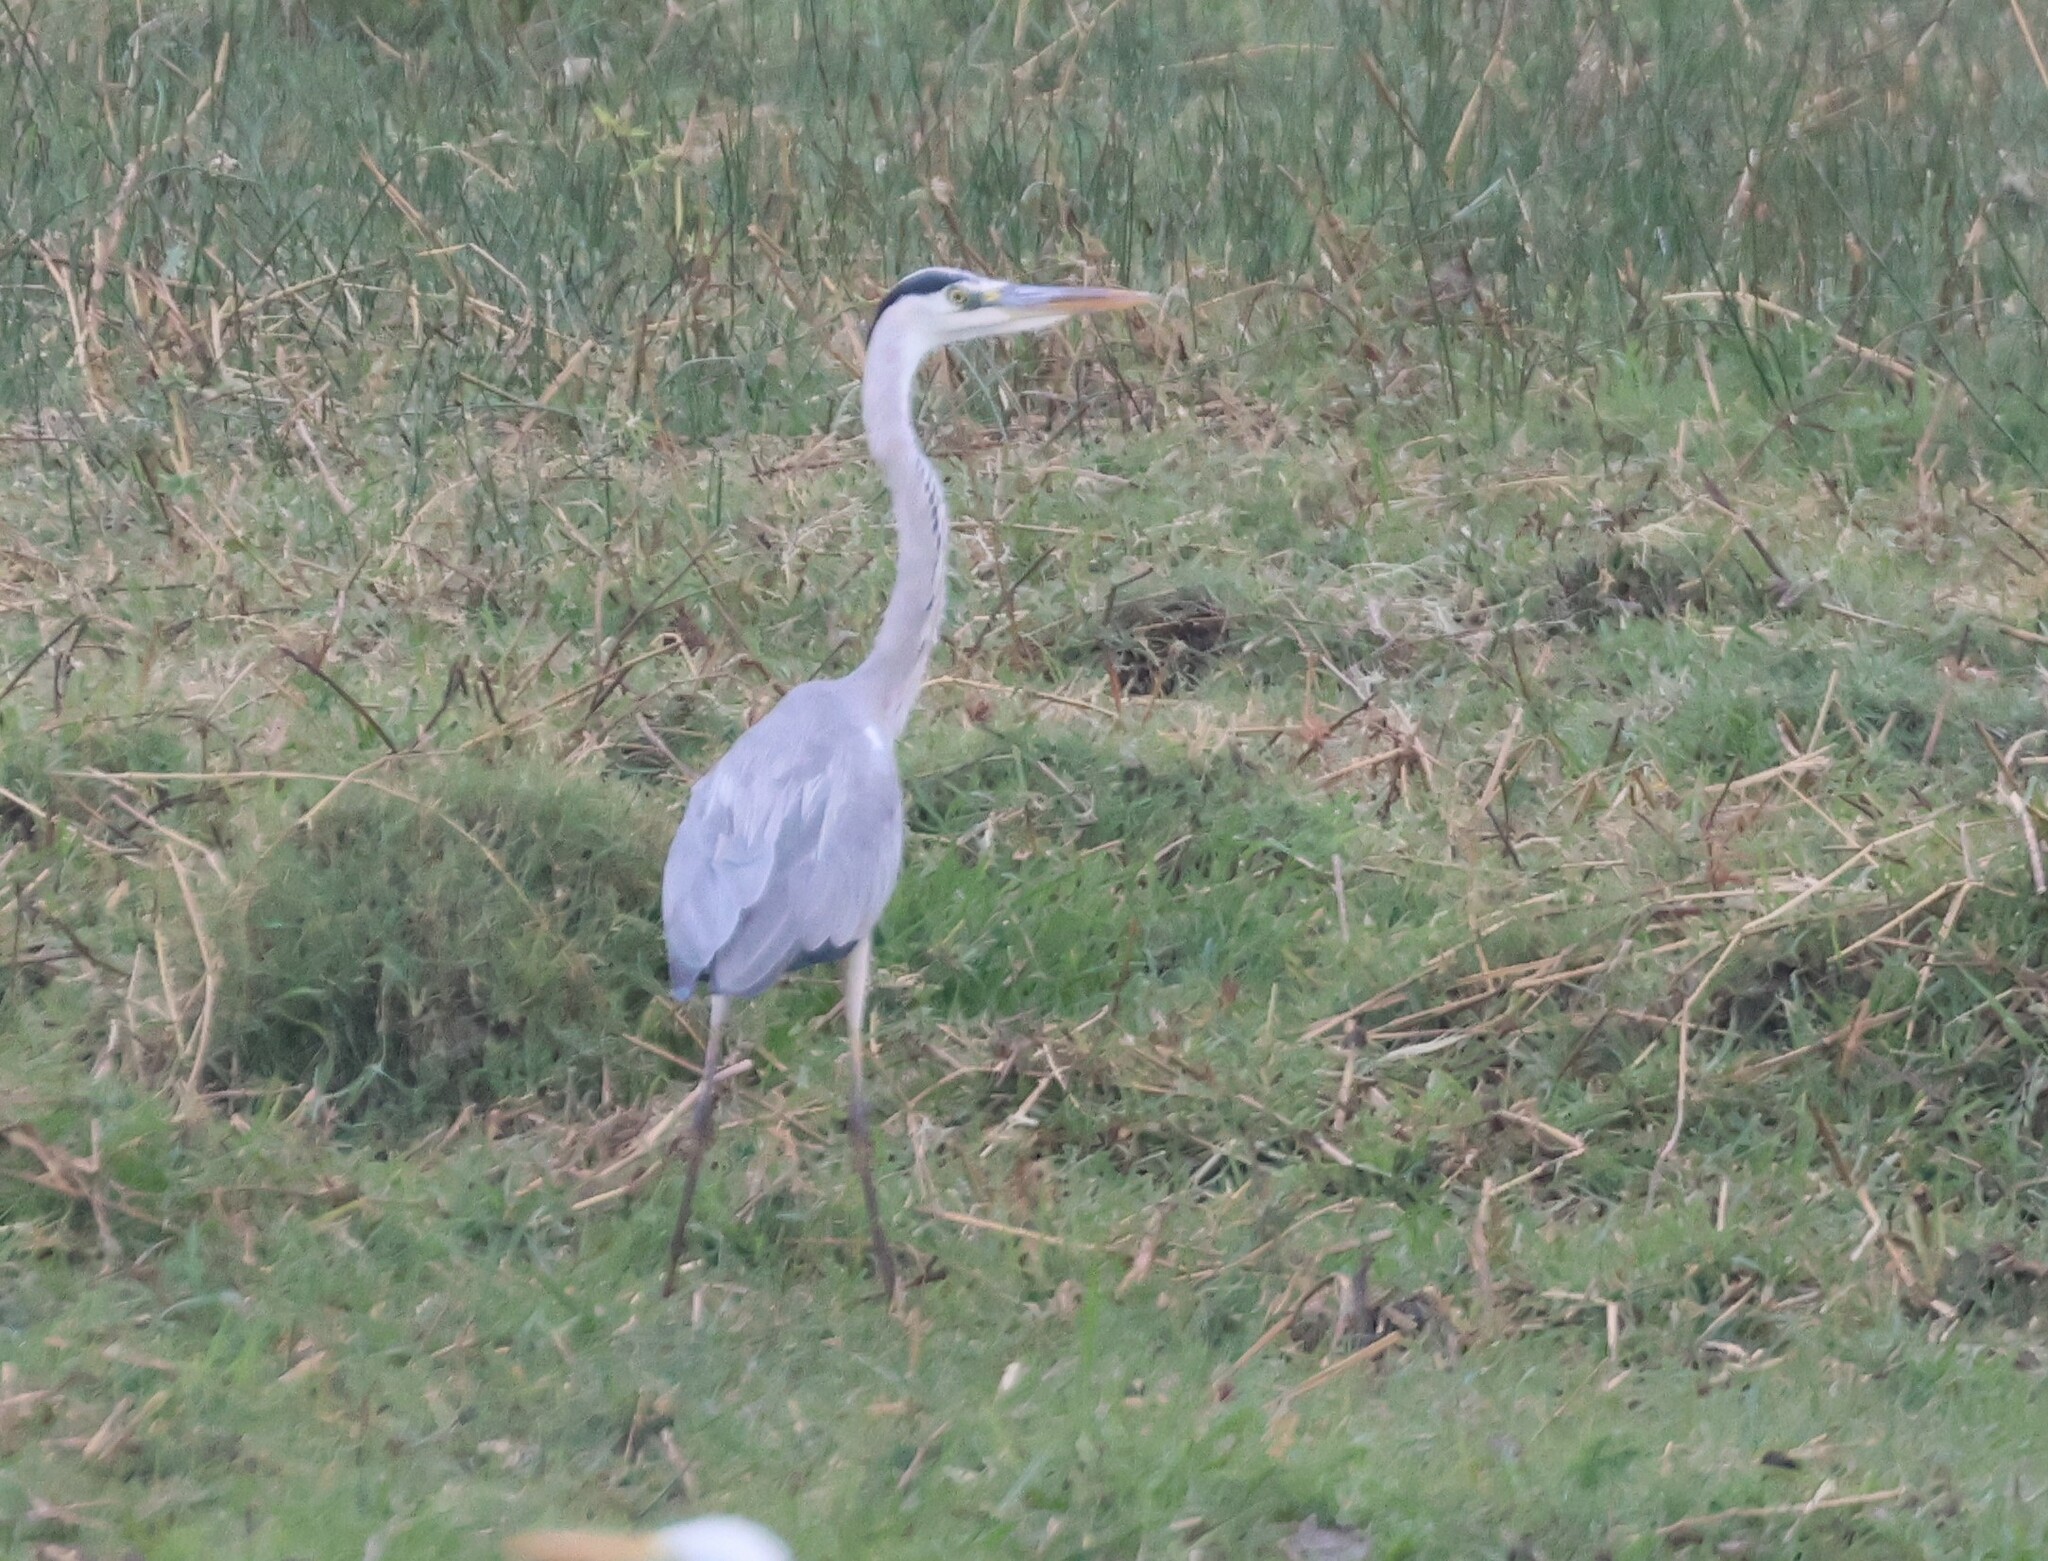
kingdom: Animalia
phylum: Chordata
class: Aves
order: Pelecaniformes
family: Ardeidae
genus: Ardea
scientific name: Ardea cinerea
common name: Grey heron
